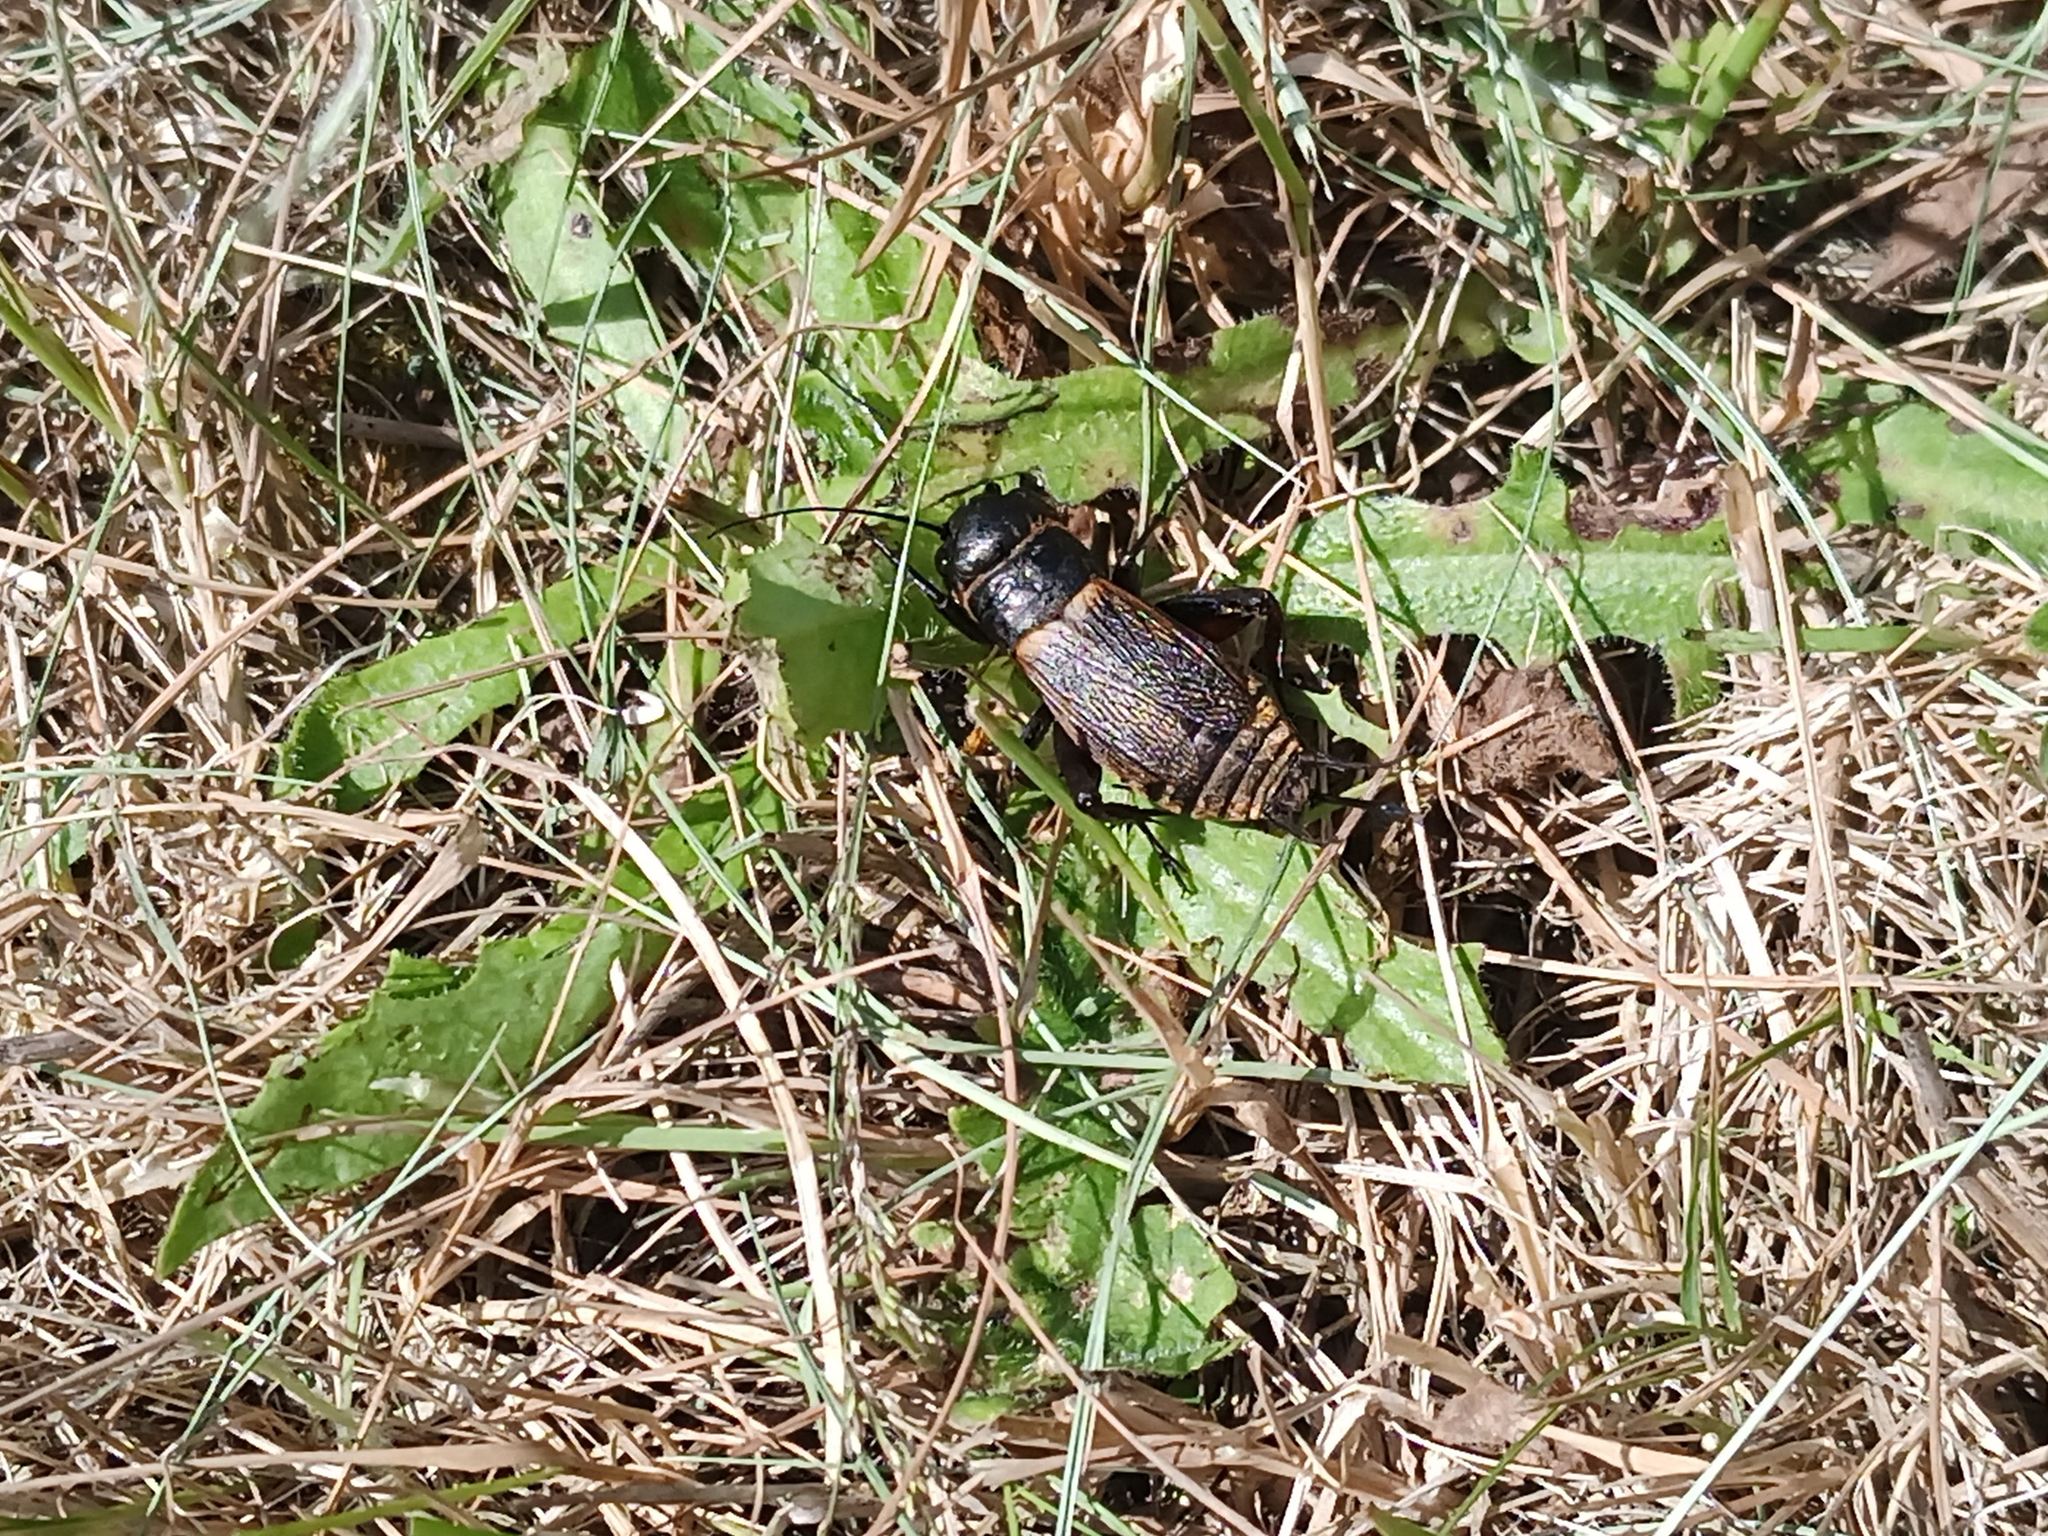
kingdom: Animalia
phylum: Arthropoda
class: Insecta
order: Orthoptera
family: Gryllidae
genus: Gryllus
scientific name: Gryllus campestris
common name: Field cricket
